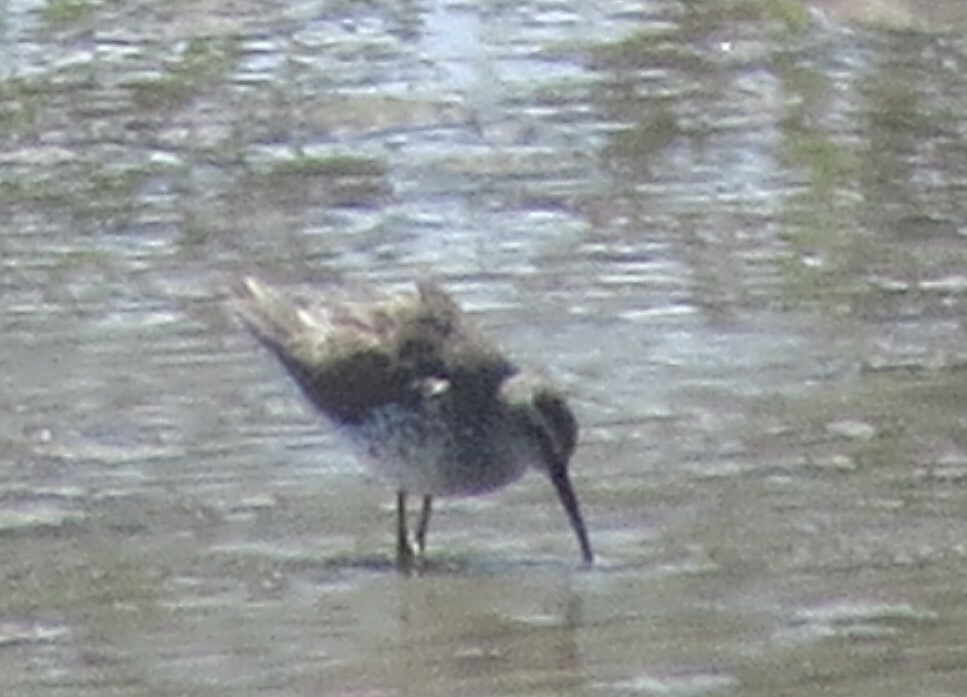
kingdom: Animalia
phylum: Chordata
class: Aves
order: Charadriiformes
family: Scolopacidae
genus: Calidris
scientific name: Calidris himantopus
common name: Stilt sandpiper
